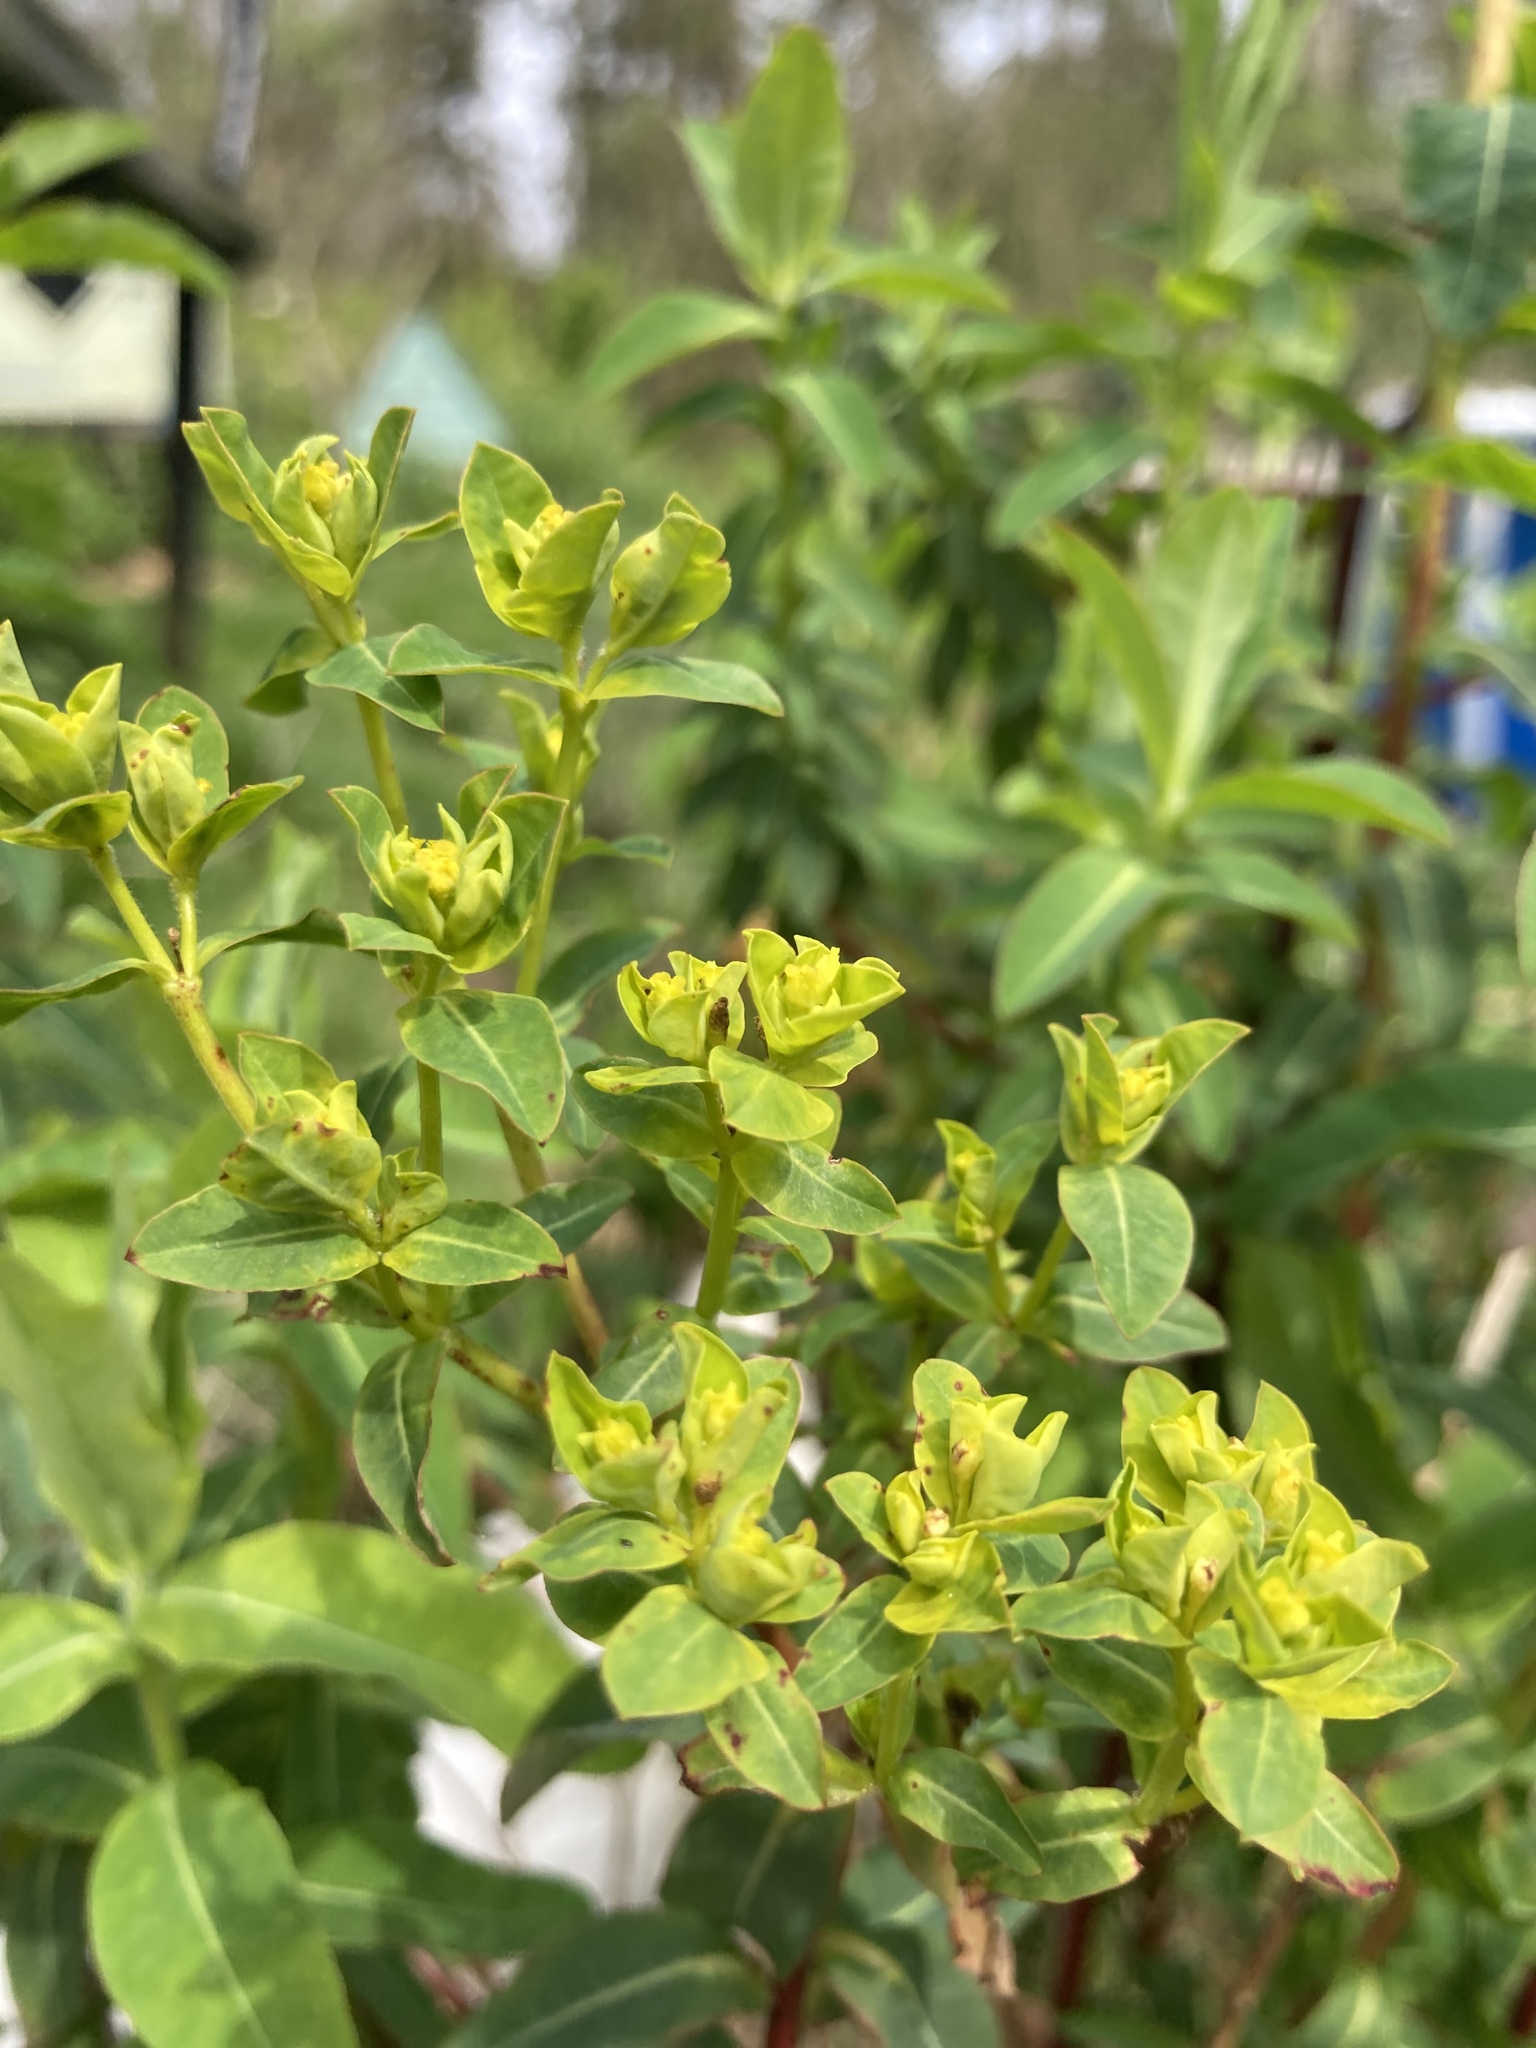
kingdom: Plantae
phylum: Tracheophyta
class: Magnoliopsida
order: Malpighiales
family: Euphorbiaceae
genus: Euphorbia
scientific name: Euphorbia oblongata
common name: Balkan spurge
